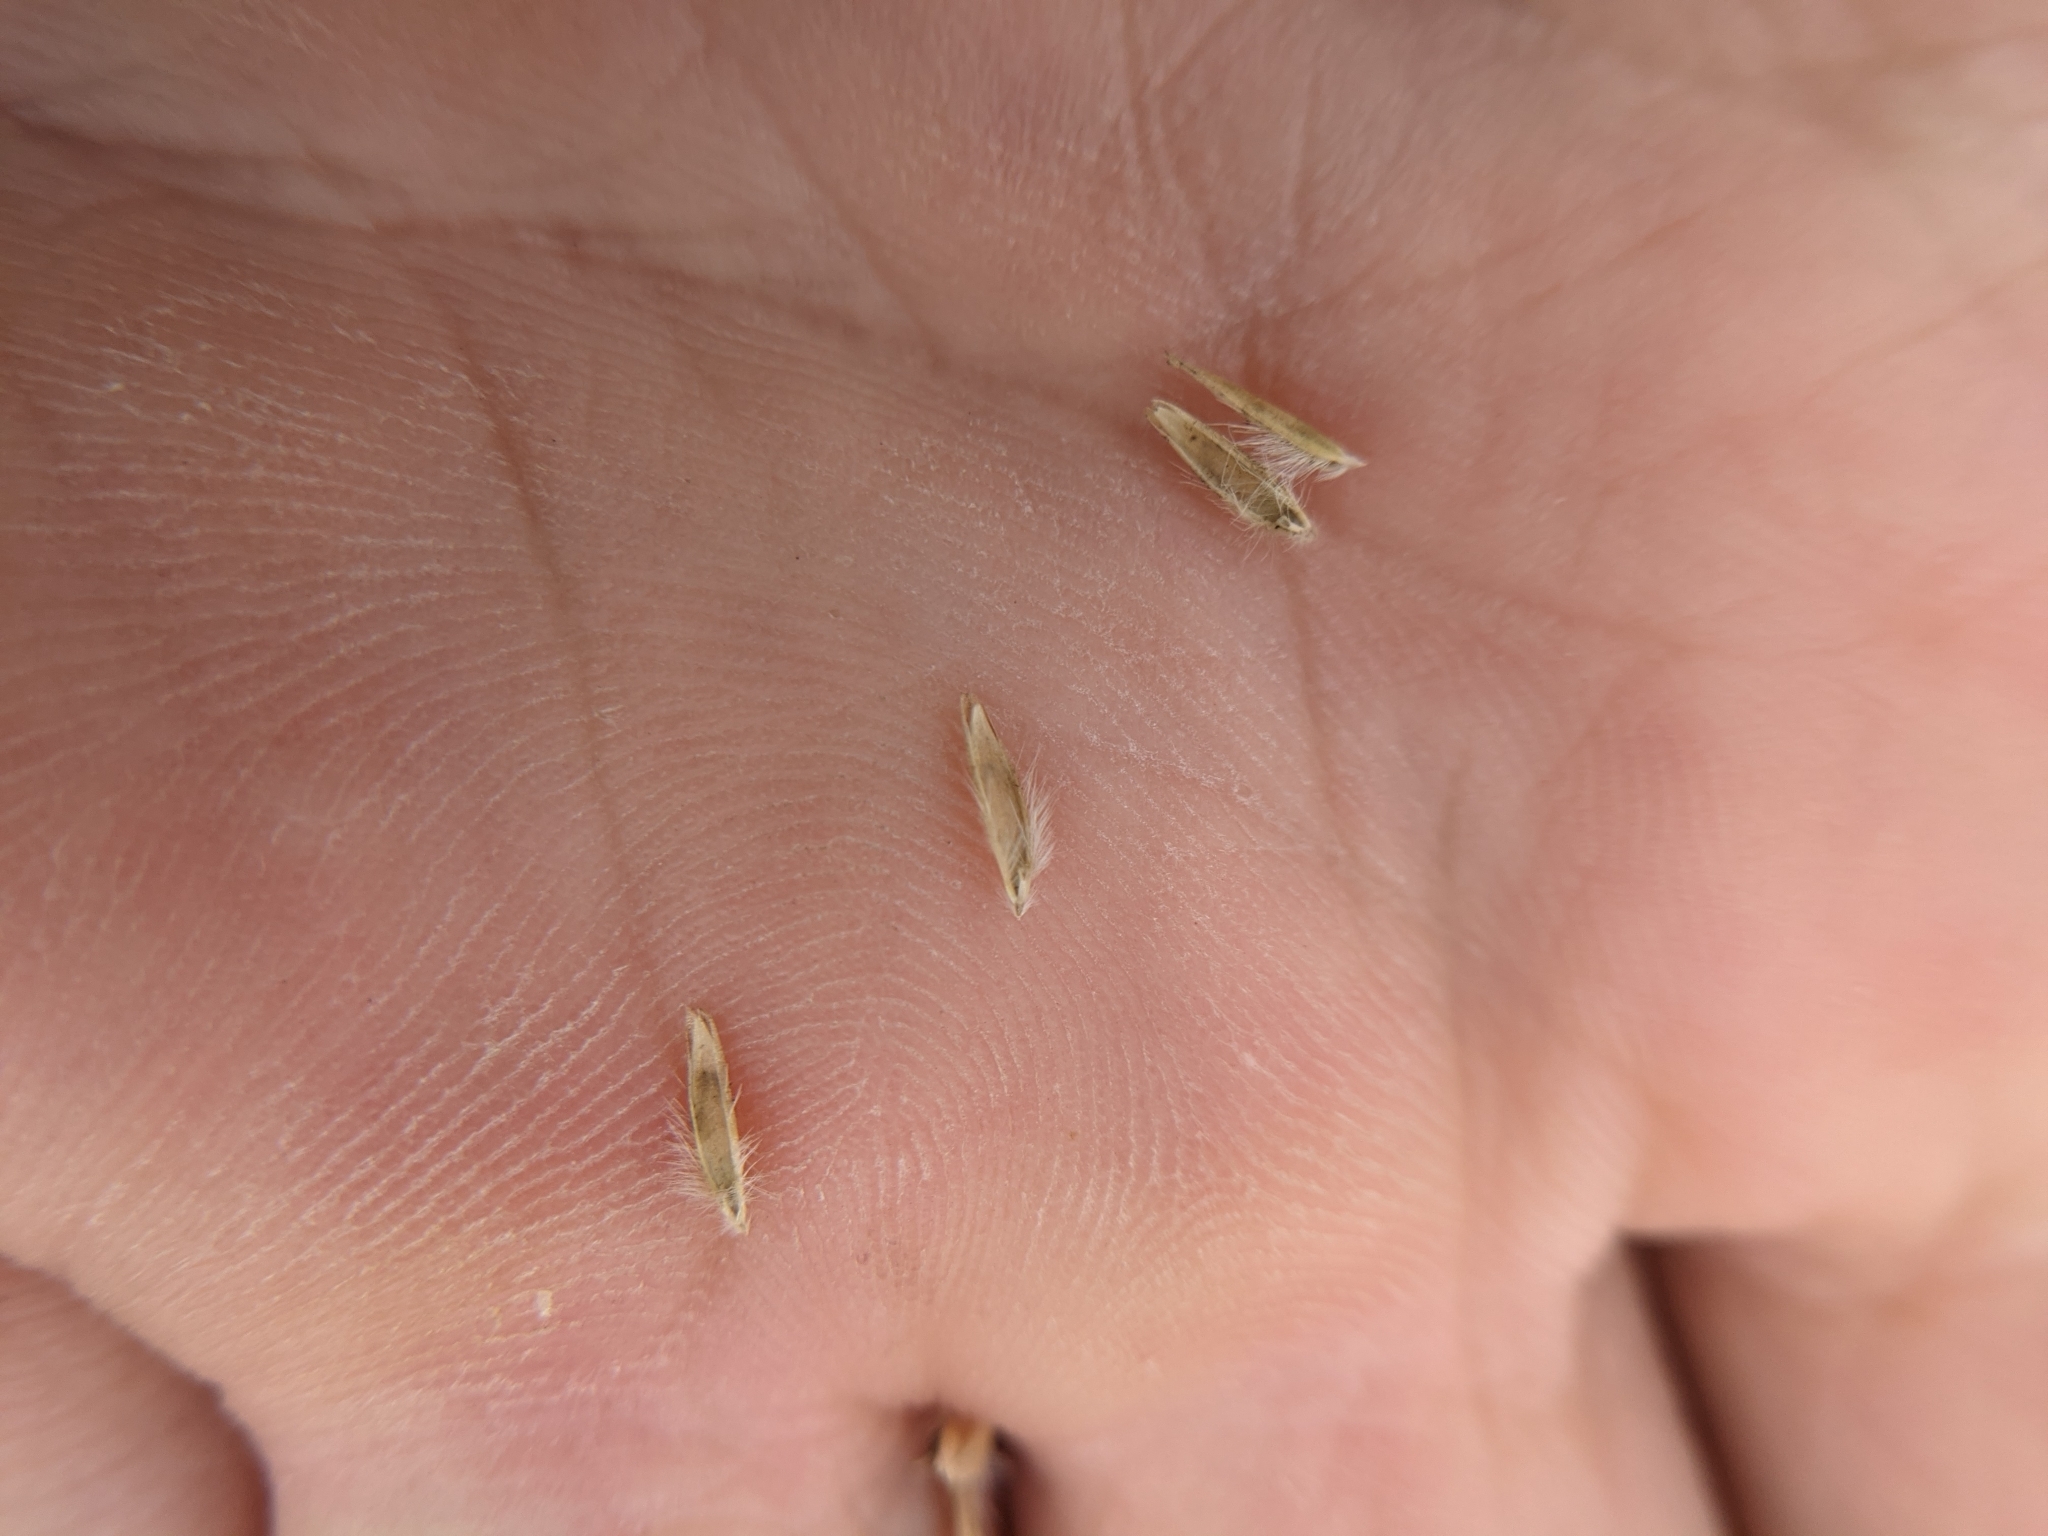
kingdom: Plantae
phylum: Tracheophyta
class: Liliopsida
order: Poales
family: Poaceae
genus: Trichoneura
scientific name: Trichoneura elegans
